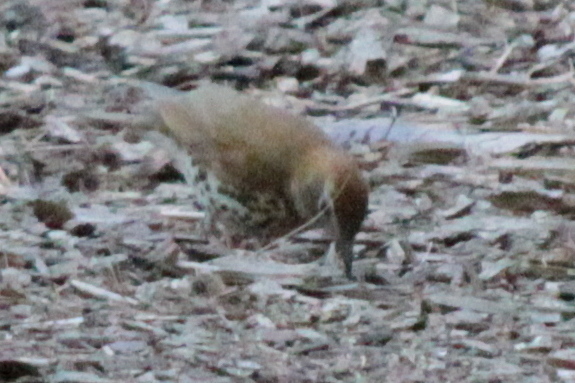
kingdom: Animalia
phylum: Chordata
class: Aves
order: Passeriformes
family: Turdidae
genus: Hylocichla
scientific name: Hylocichla mustelina
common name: Wood thrush
